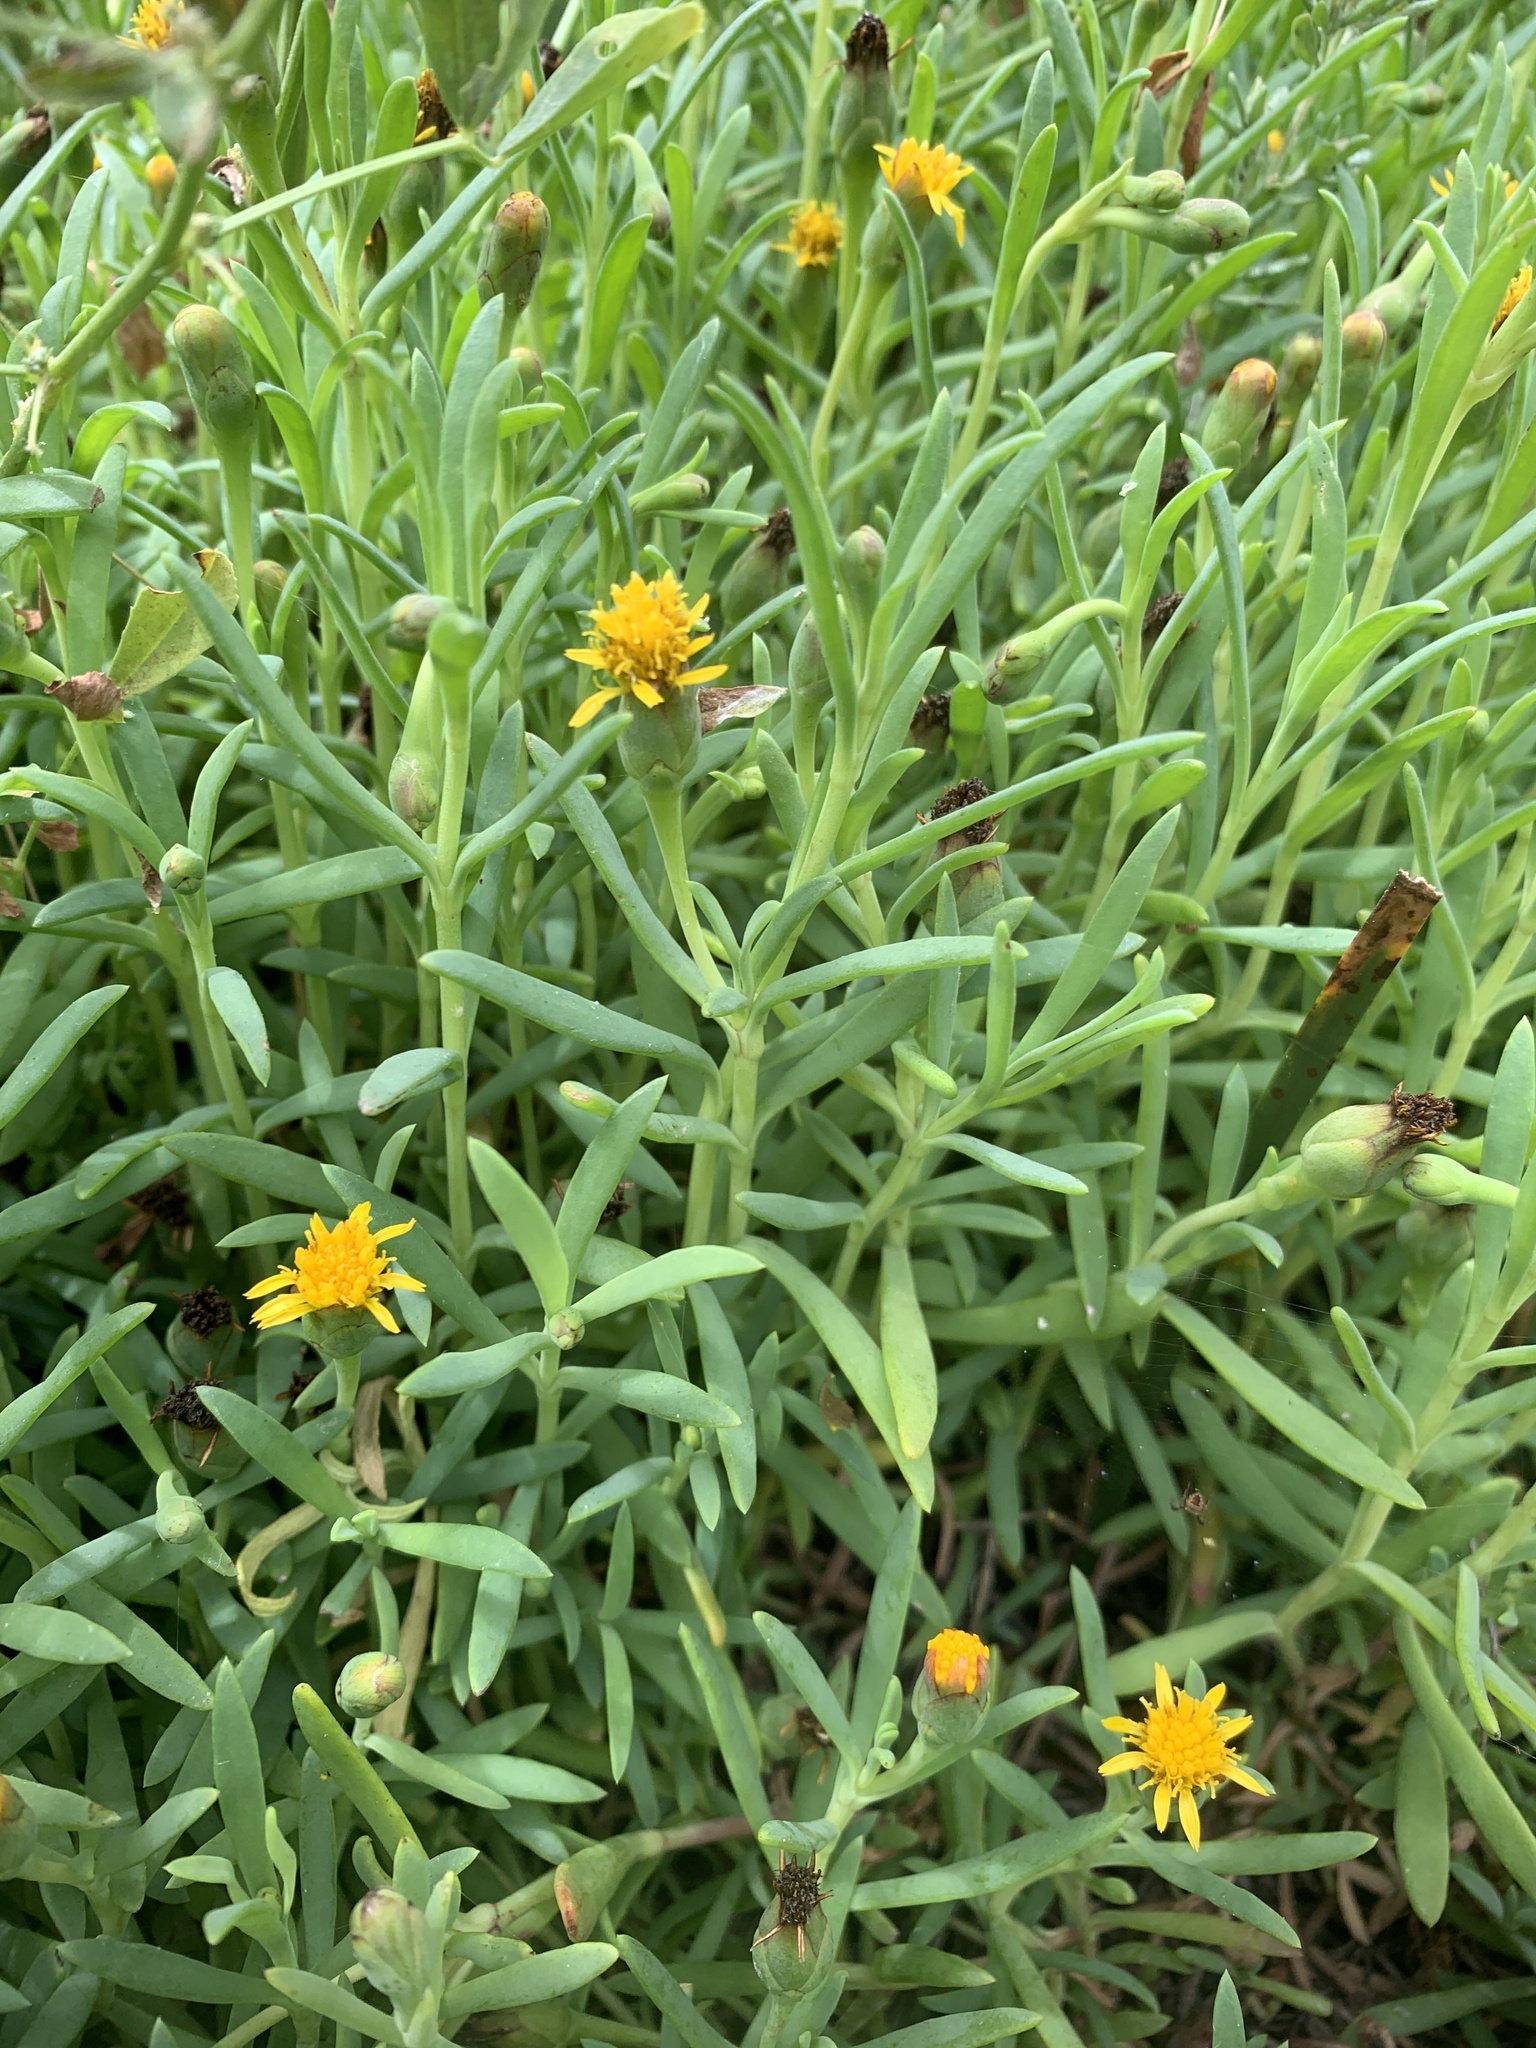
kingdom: Plantae
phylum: Tracheophyta
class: Magnoliopsida
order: Asterales
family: Asteraceae
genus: Jaumea
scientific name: Jaumea carnosa
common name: Fleshy jaumea
